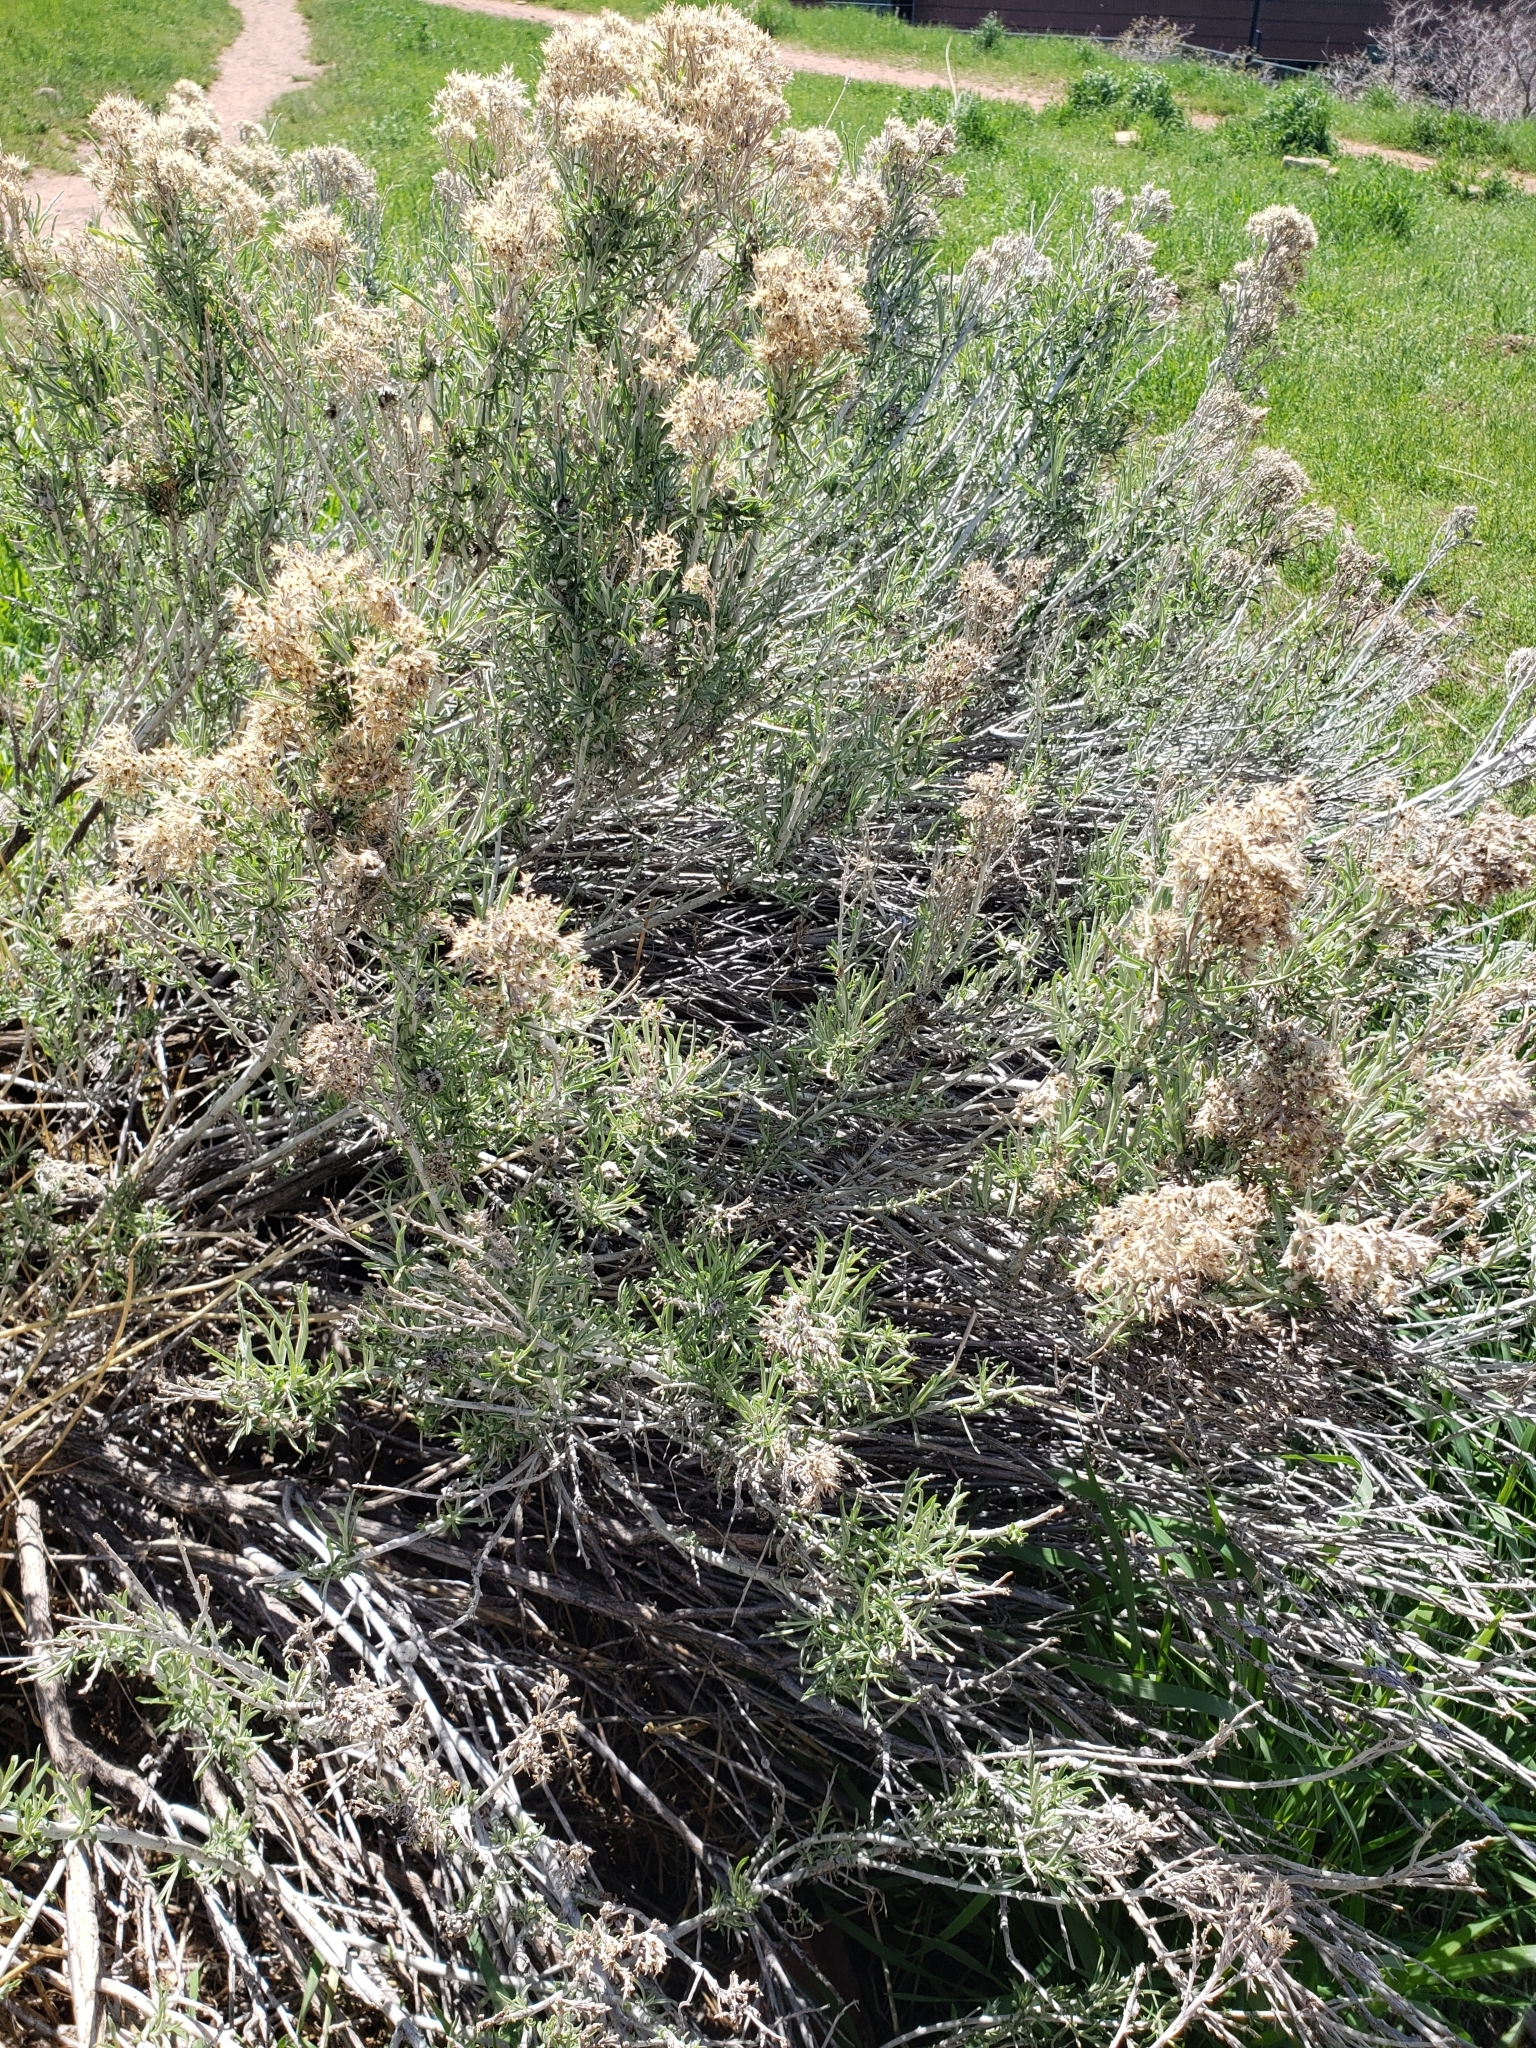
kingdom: Plantae
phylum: Tracheophyta
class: Magnoliopsida
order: Asterales
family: Asteraceae
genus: Ericameria
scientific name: Ericameria nauseosa
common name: Rubber rabbitbrush
